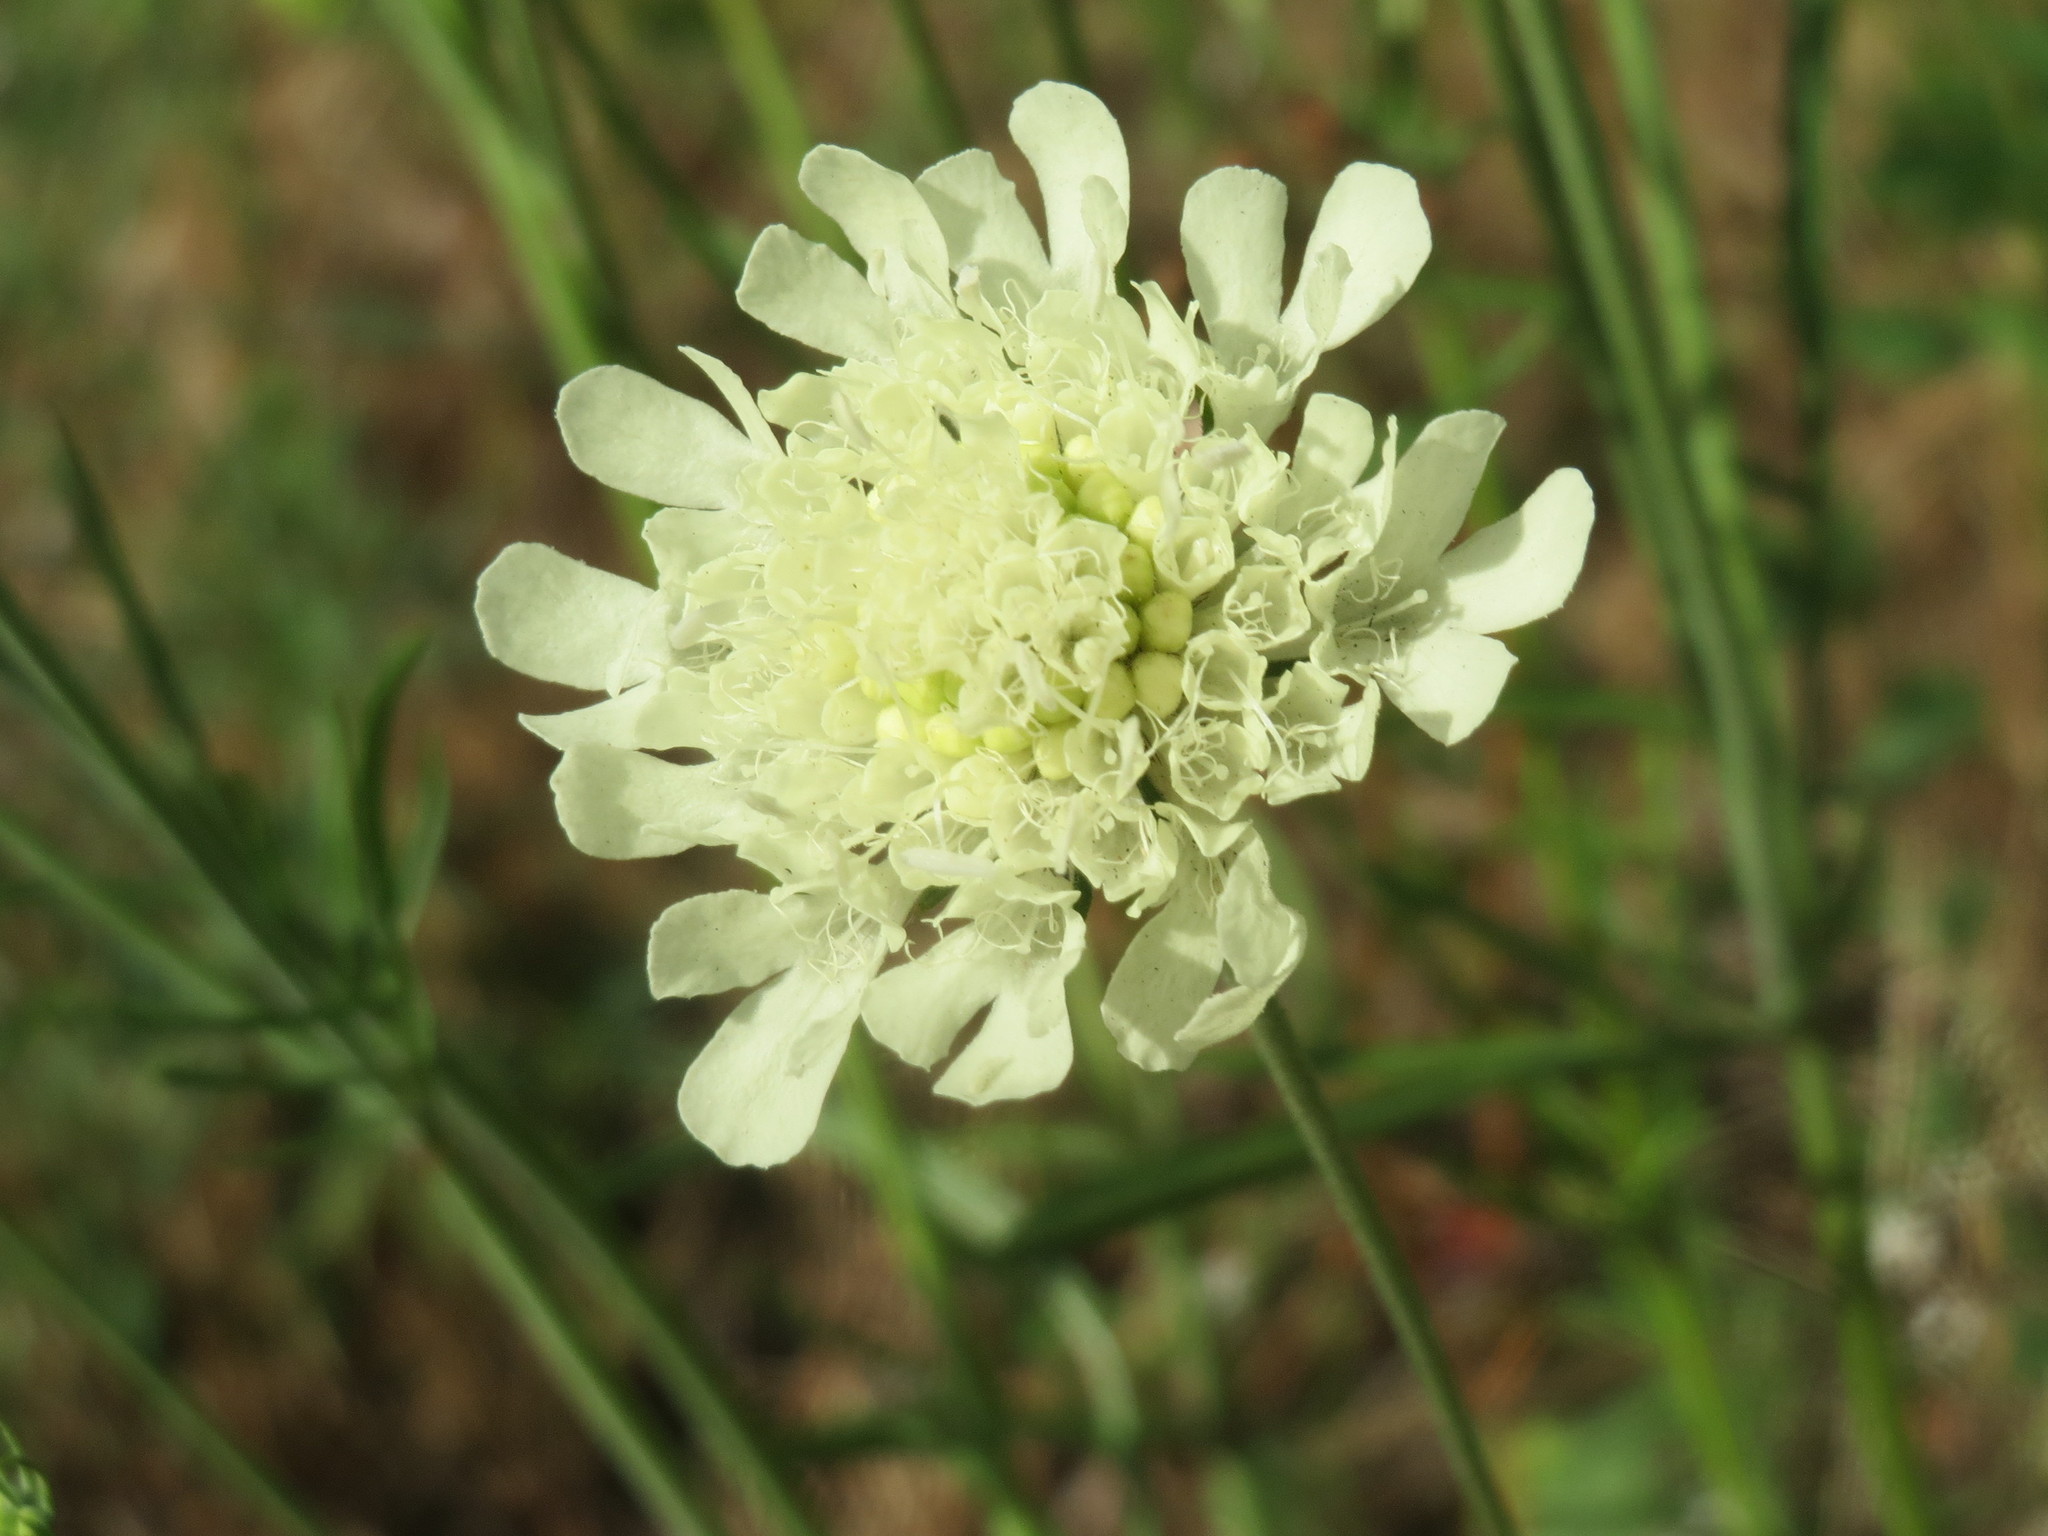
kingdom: Plantae
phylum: Tracheophyta
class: Magnoliopsida
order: Dipsacales
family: Caprifoliaceae
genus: Scabiosa
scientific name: Scabiosa ochroleuca
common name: Cream pincushions
